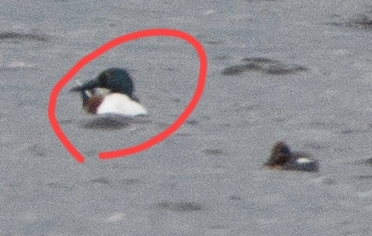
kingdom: Animalia
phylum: Chordata
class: Aves
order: Anseriformes
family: Anatidae
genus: Spatula
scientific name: Spatula clypeata
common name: Northern shoveler
